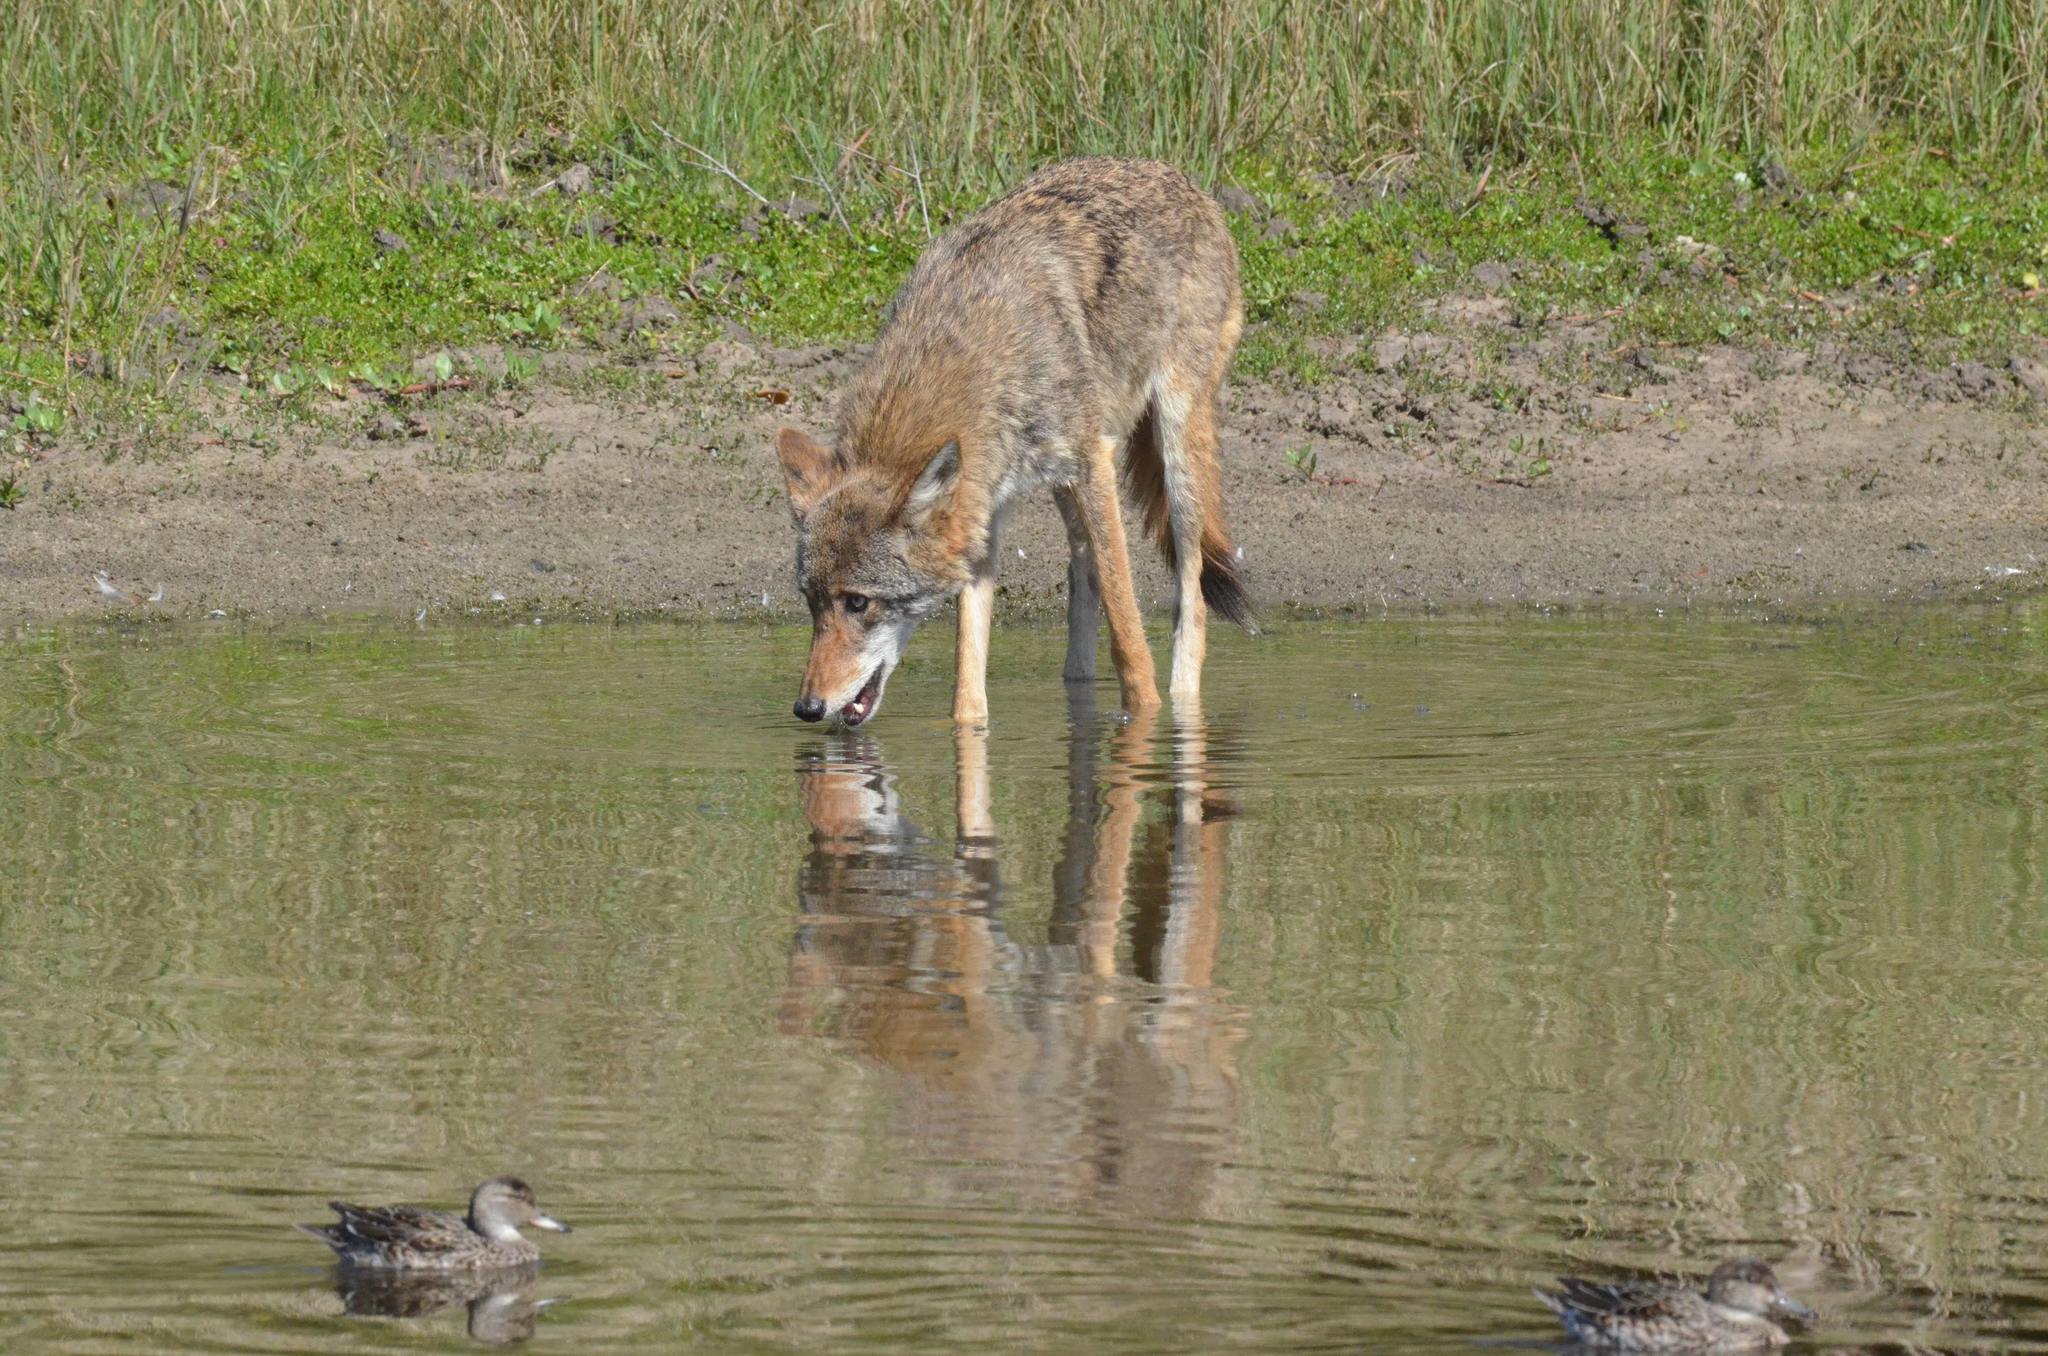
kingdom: Animalia
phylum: Chordata
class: Mammalia
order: Carnivora
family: Canidae
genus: Canis
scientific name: Canis latrans
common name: Coyote
